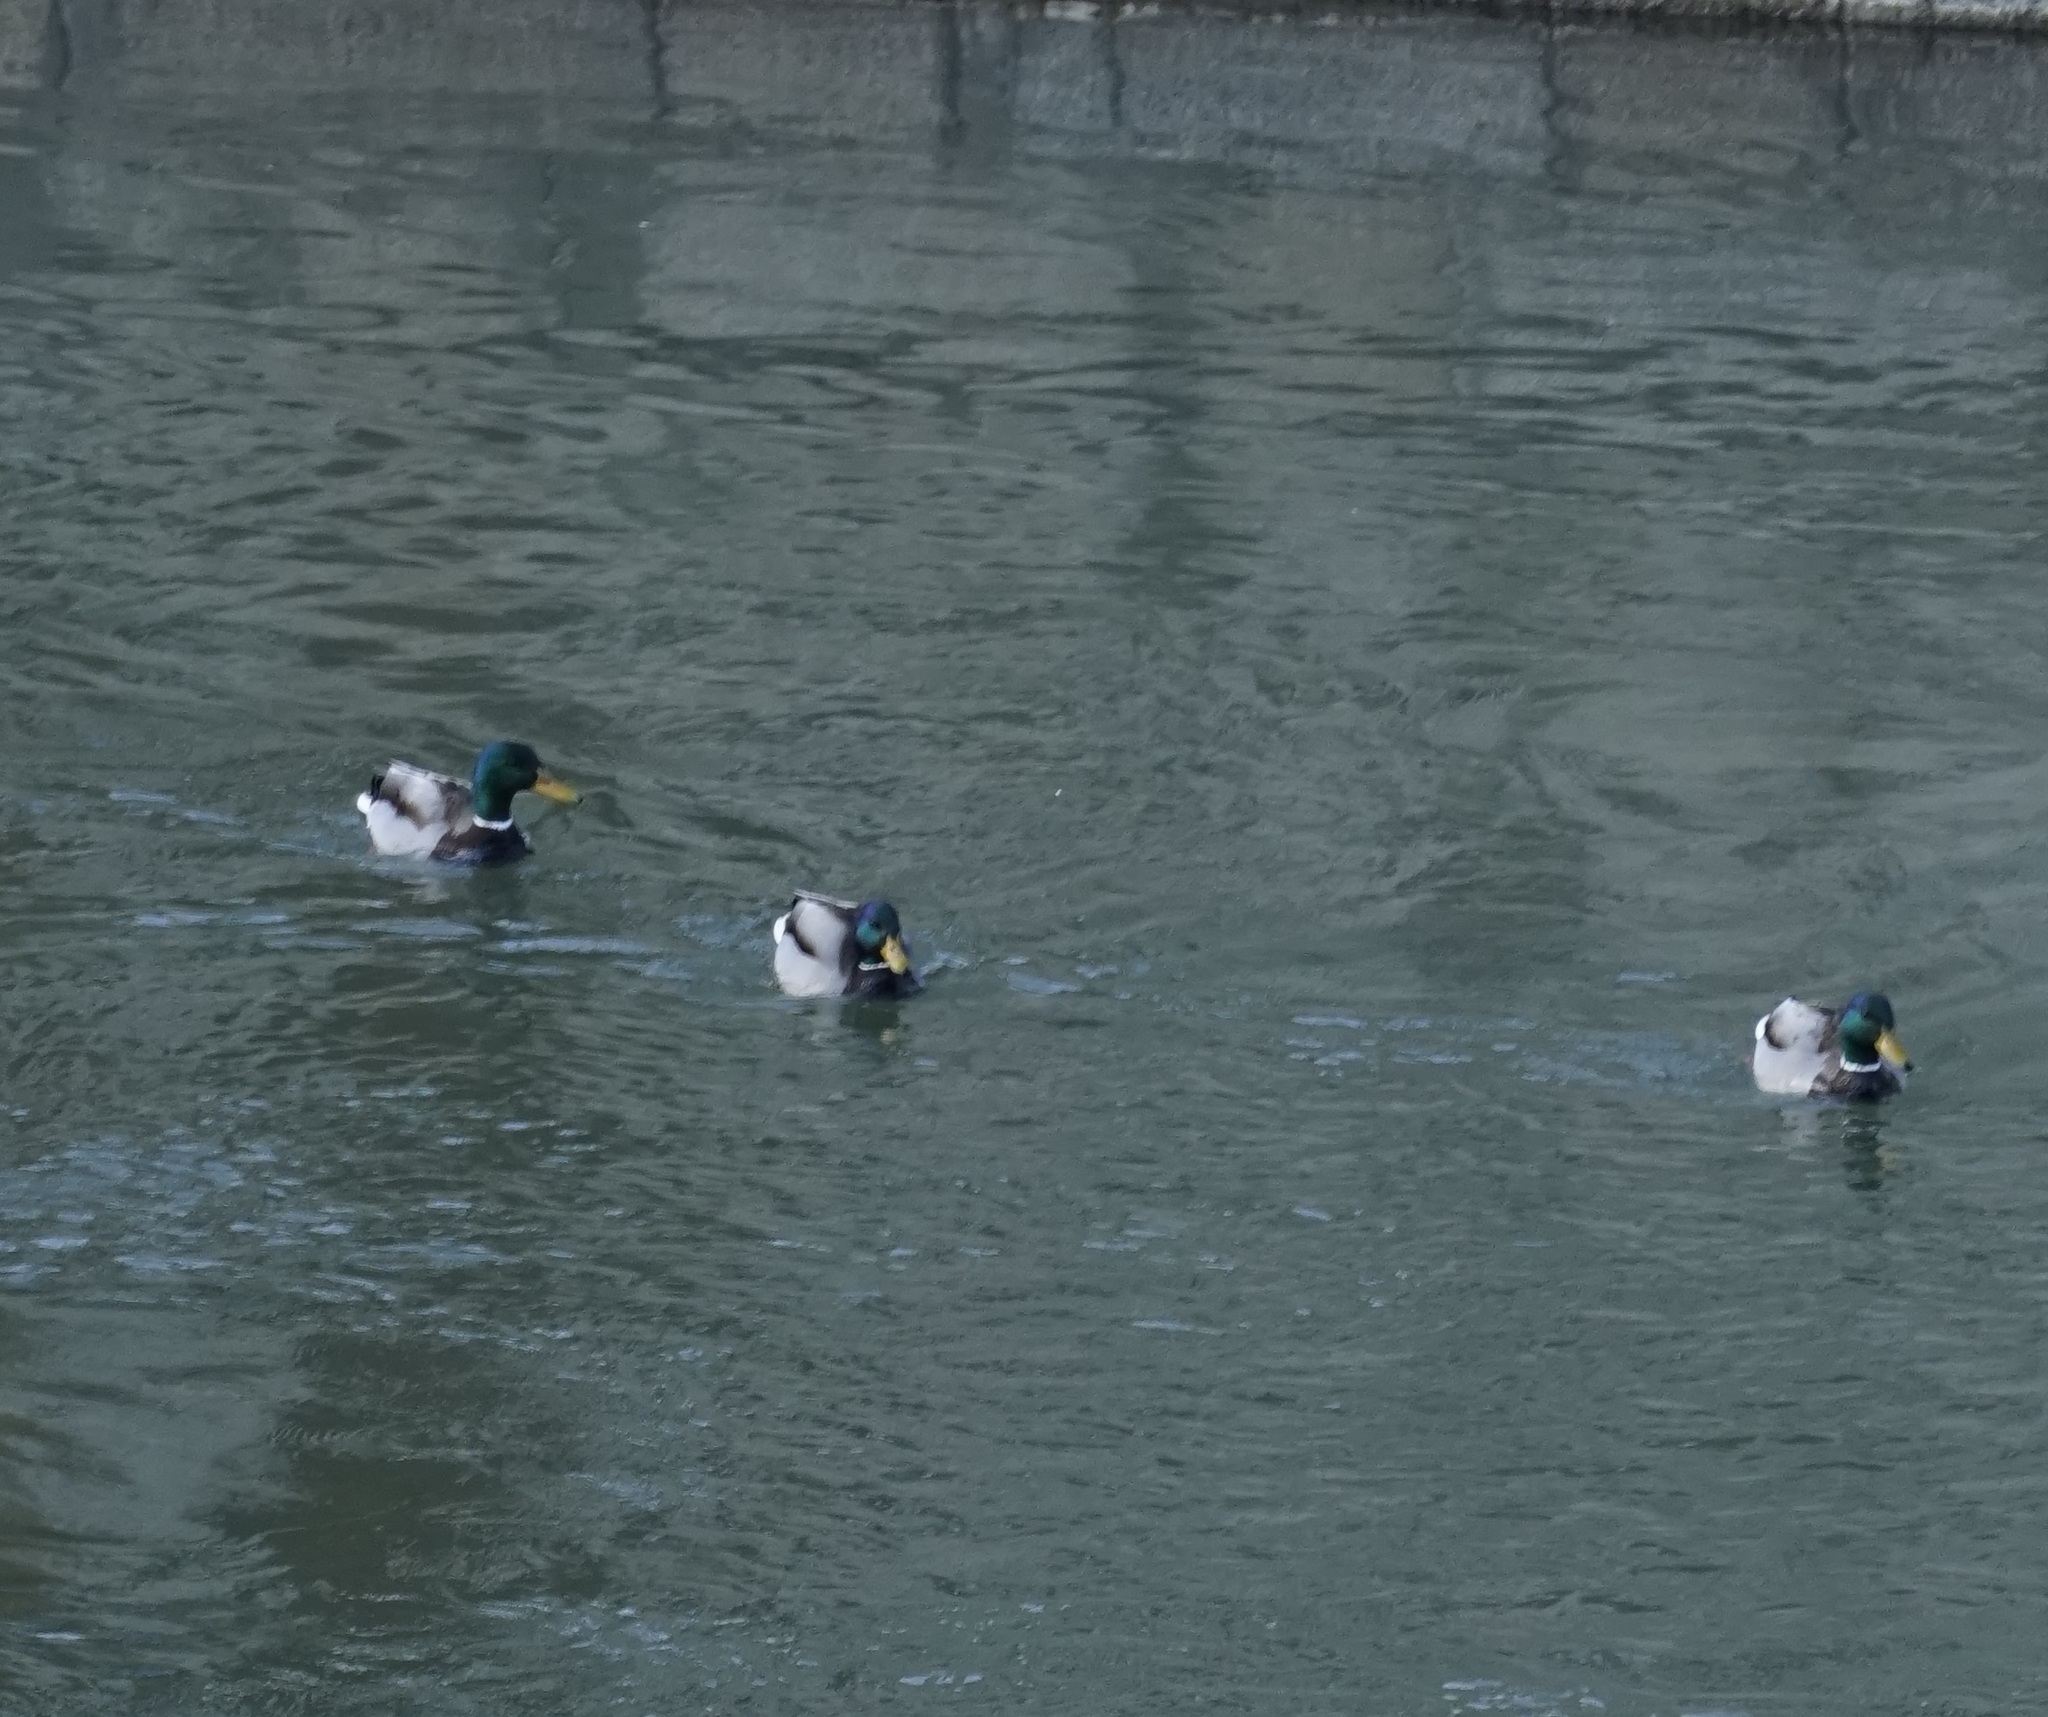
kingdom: Animalia
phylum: Chordata
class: Aves
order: Anseriformes
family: Anatidae
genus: Anas
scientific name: Anas platyrhynchos
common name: Mallard
